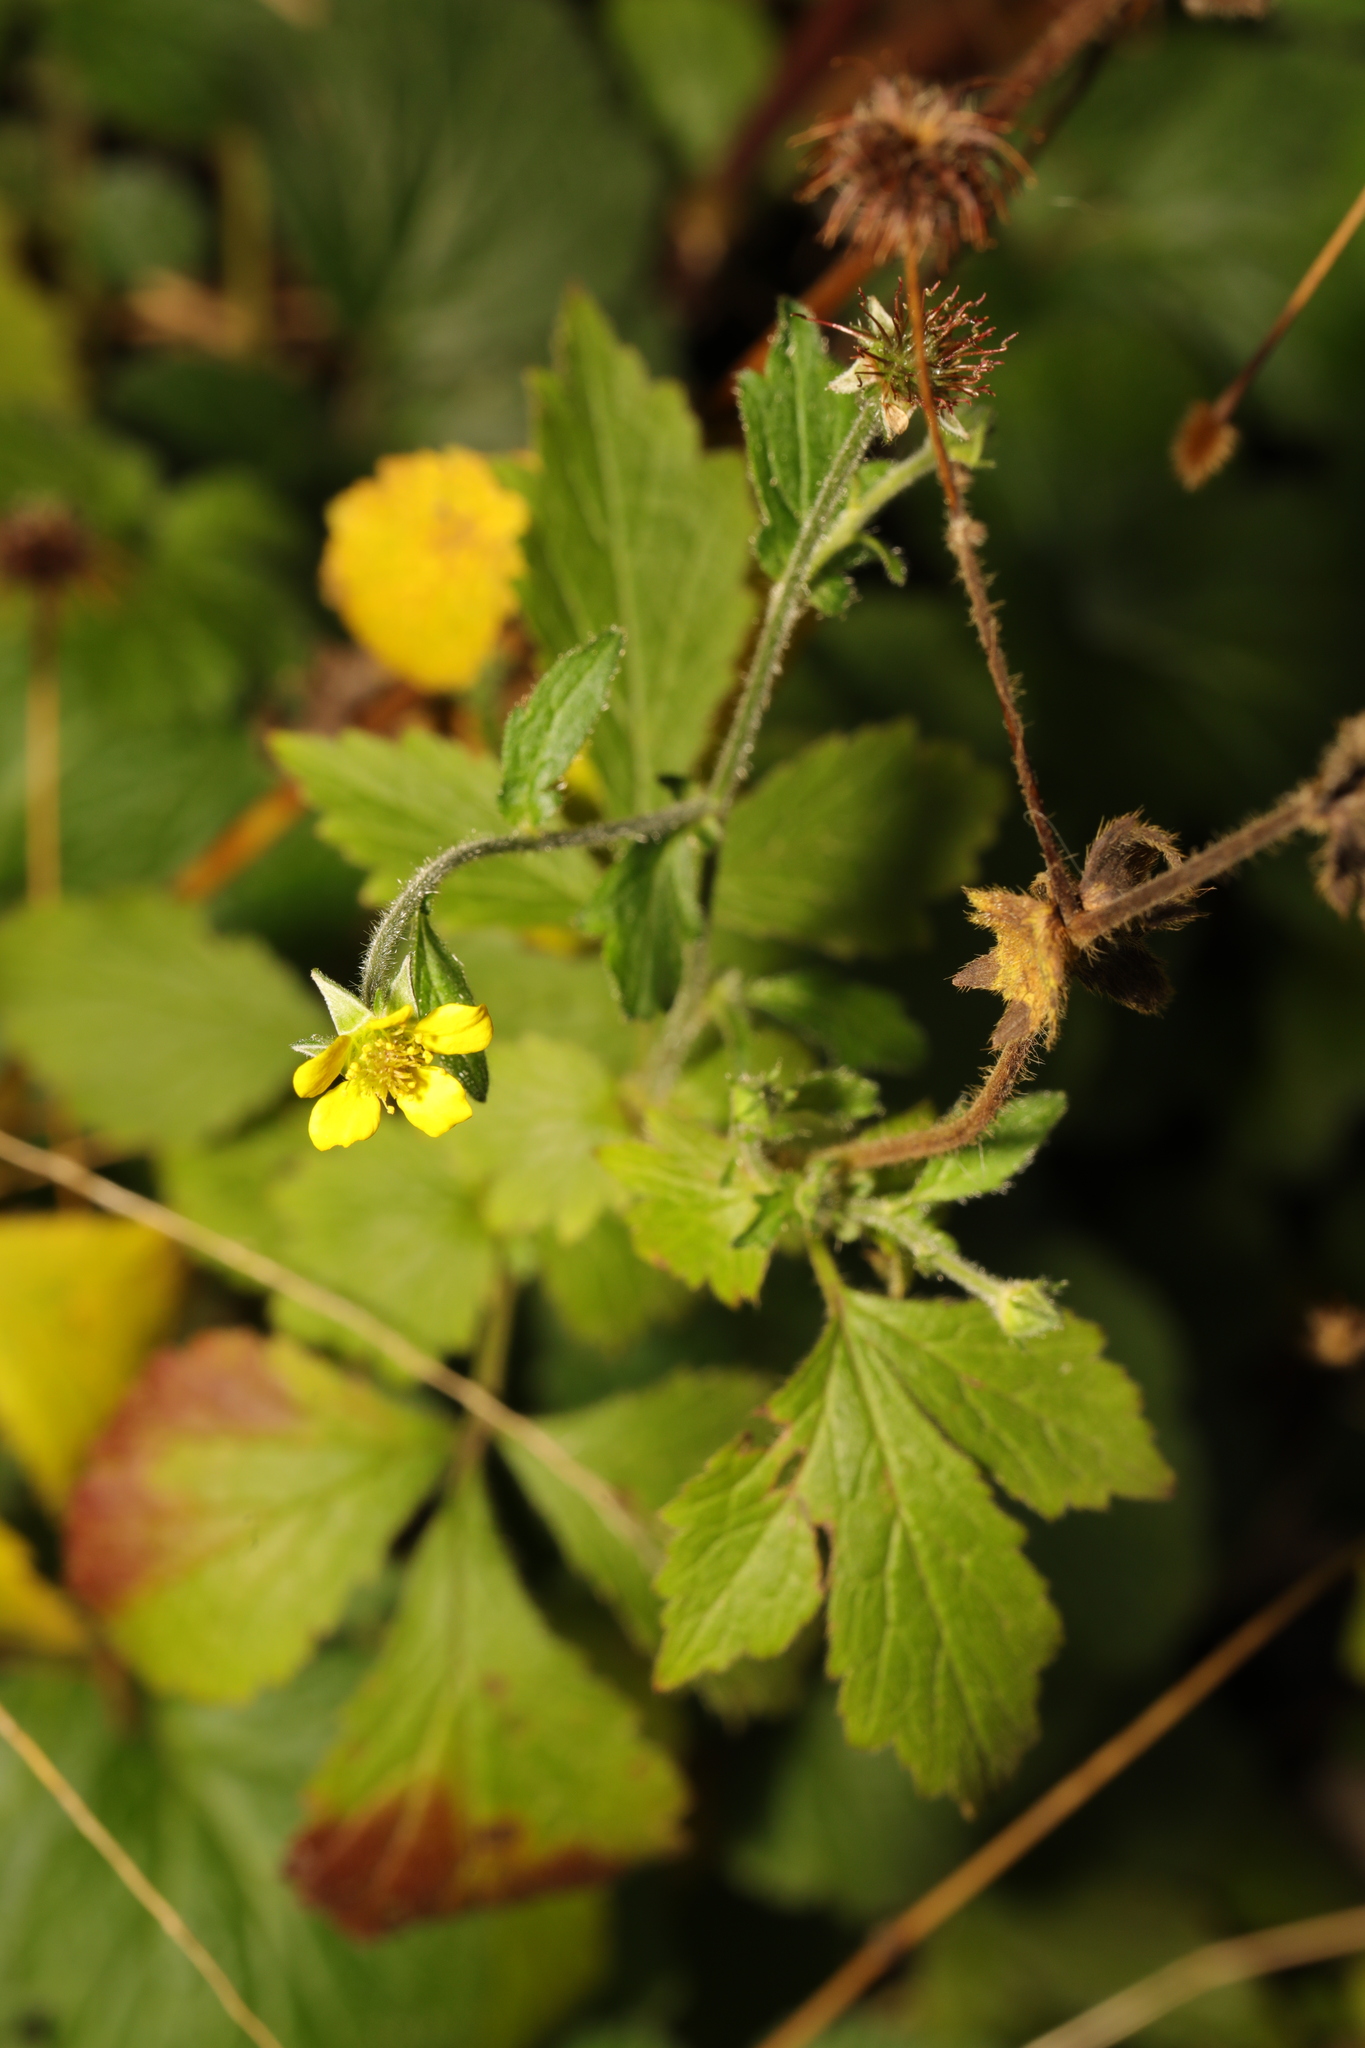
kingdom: Plantae
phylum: Tracheophyta
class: Magnoliopsida
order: Rosales
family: Rosaceae
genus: Geum
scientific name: Geum urbanum
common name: Wood avens
